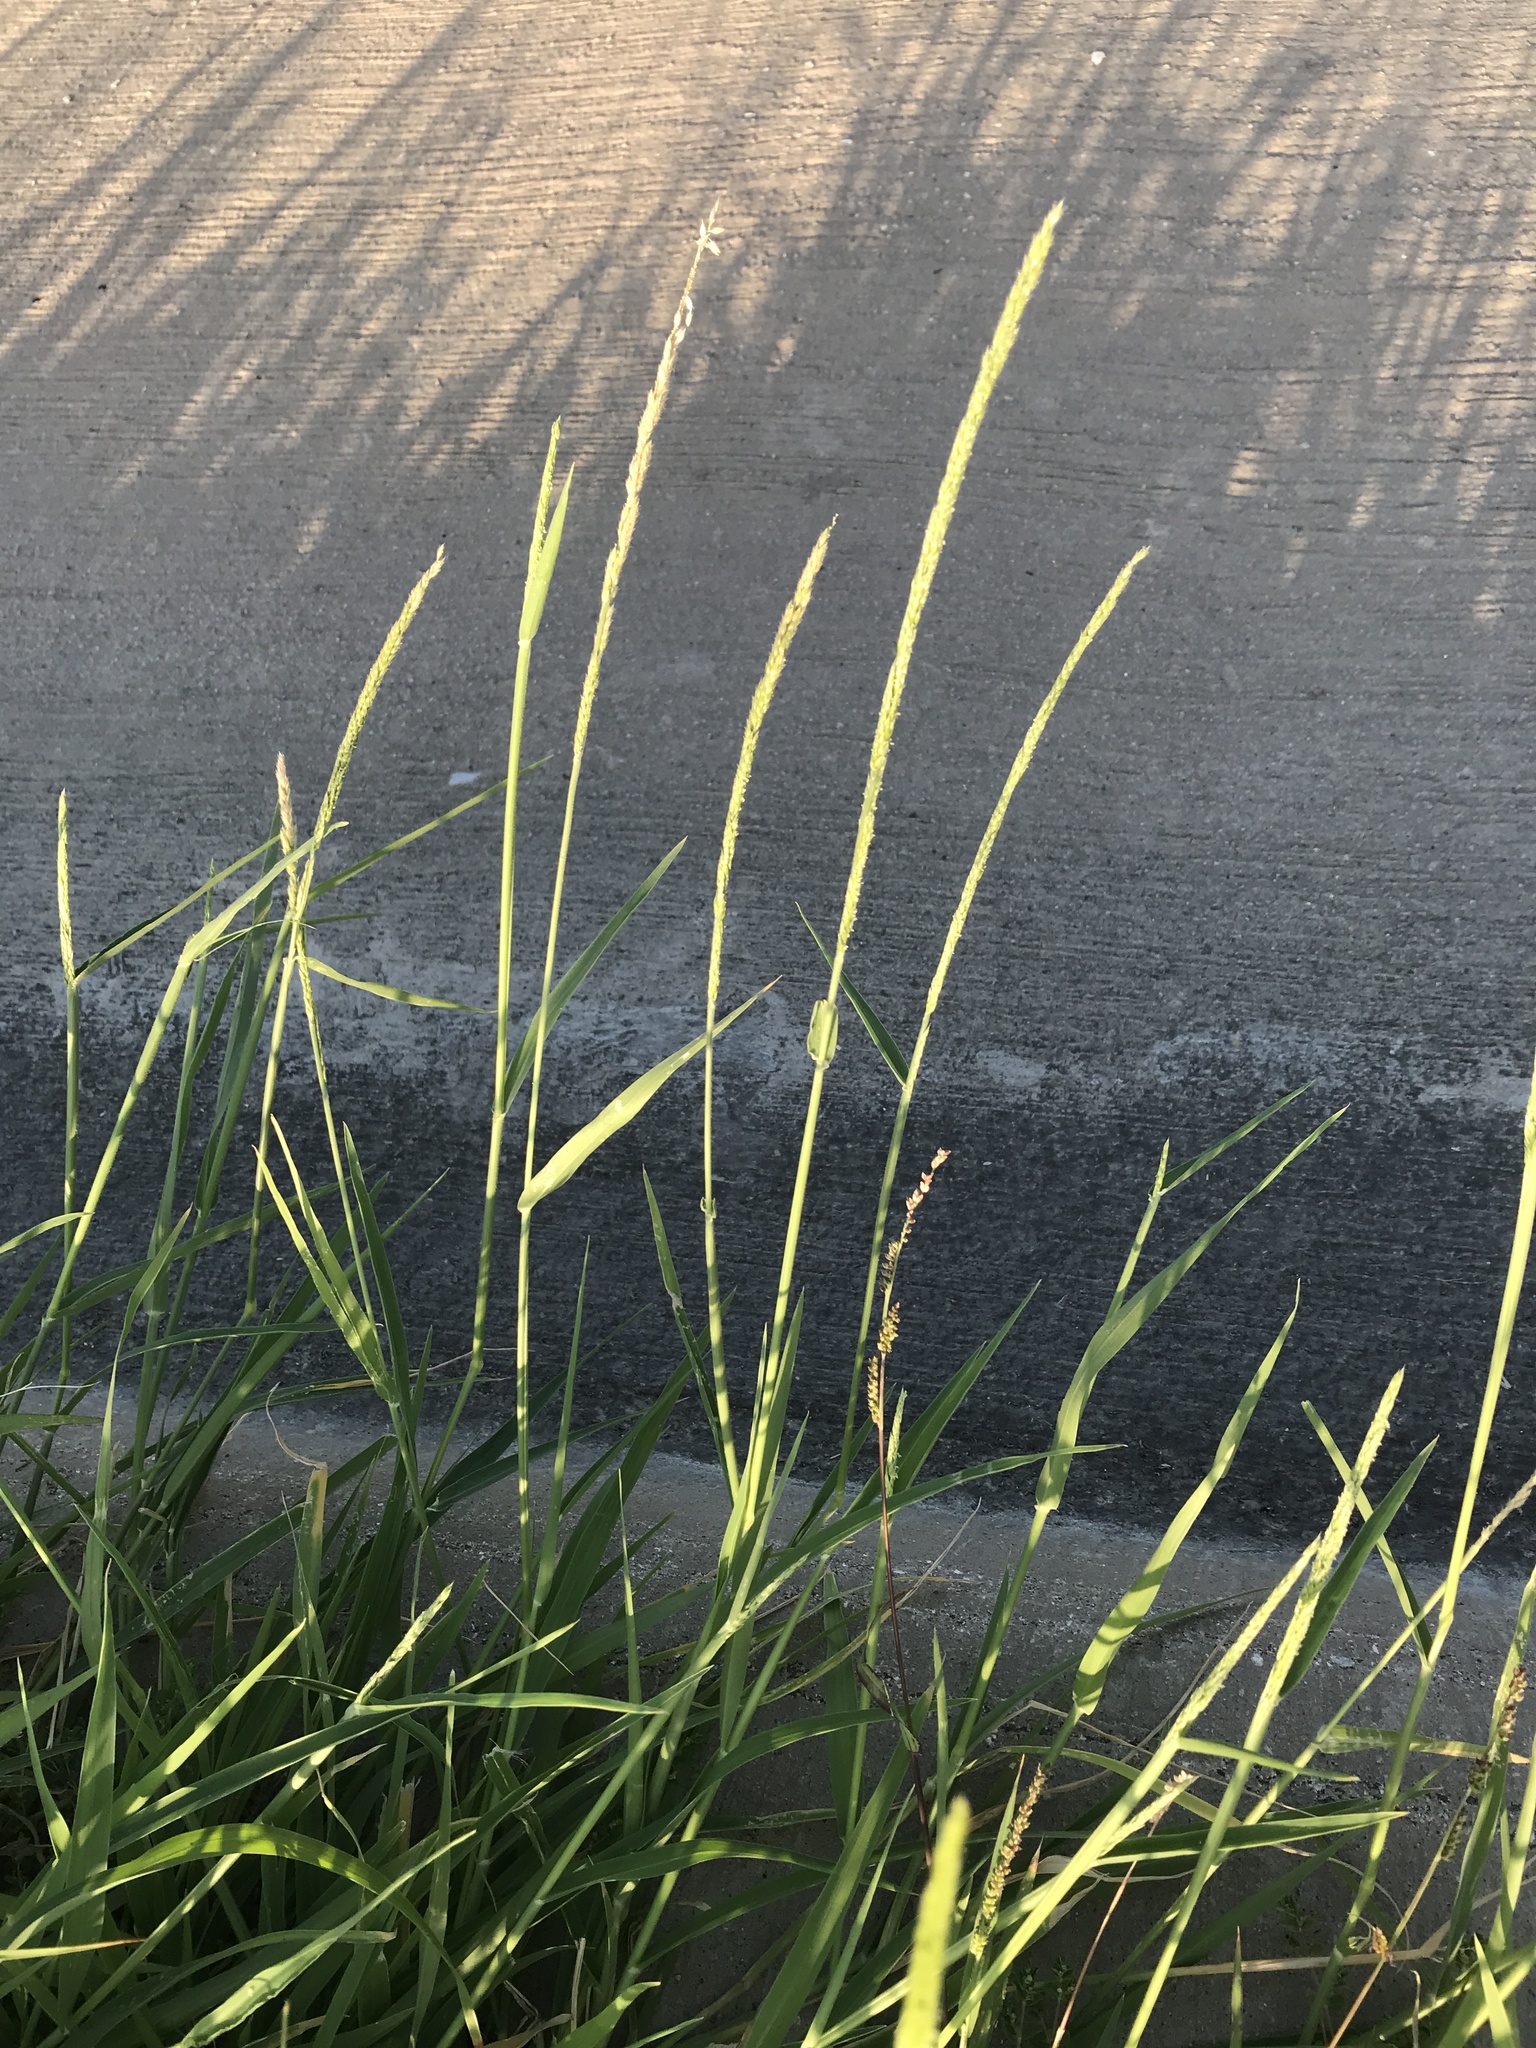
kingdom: Plantae
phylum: Tracheophyta
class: Liliopsida
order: Poales
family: Poaceae
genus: Eriochloa
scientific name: Eriochloa contracta
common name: Prairie cup grass
